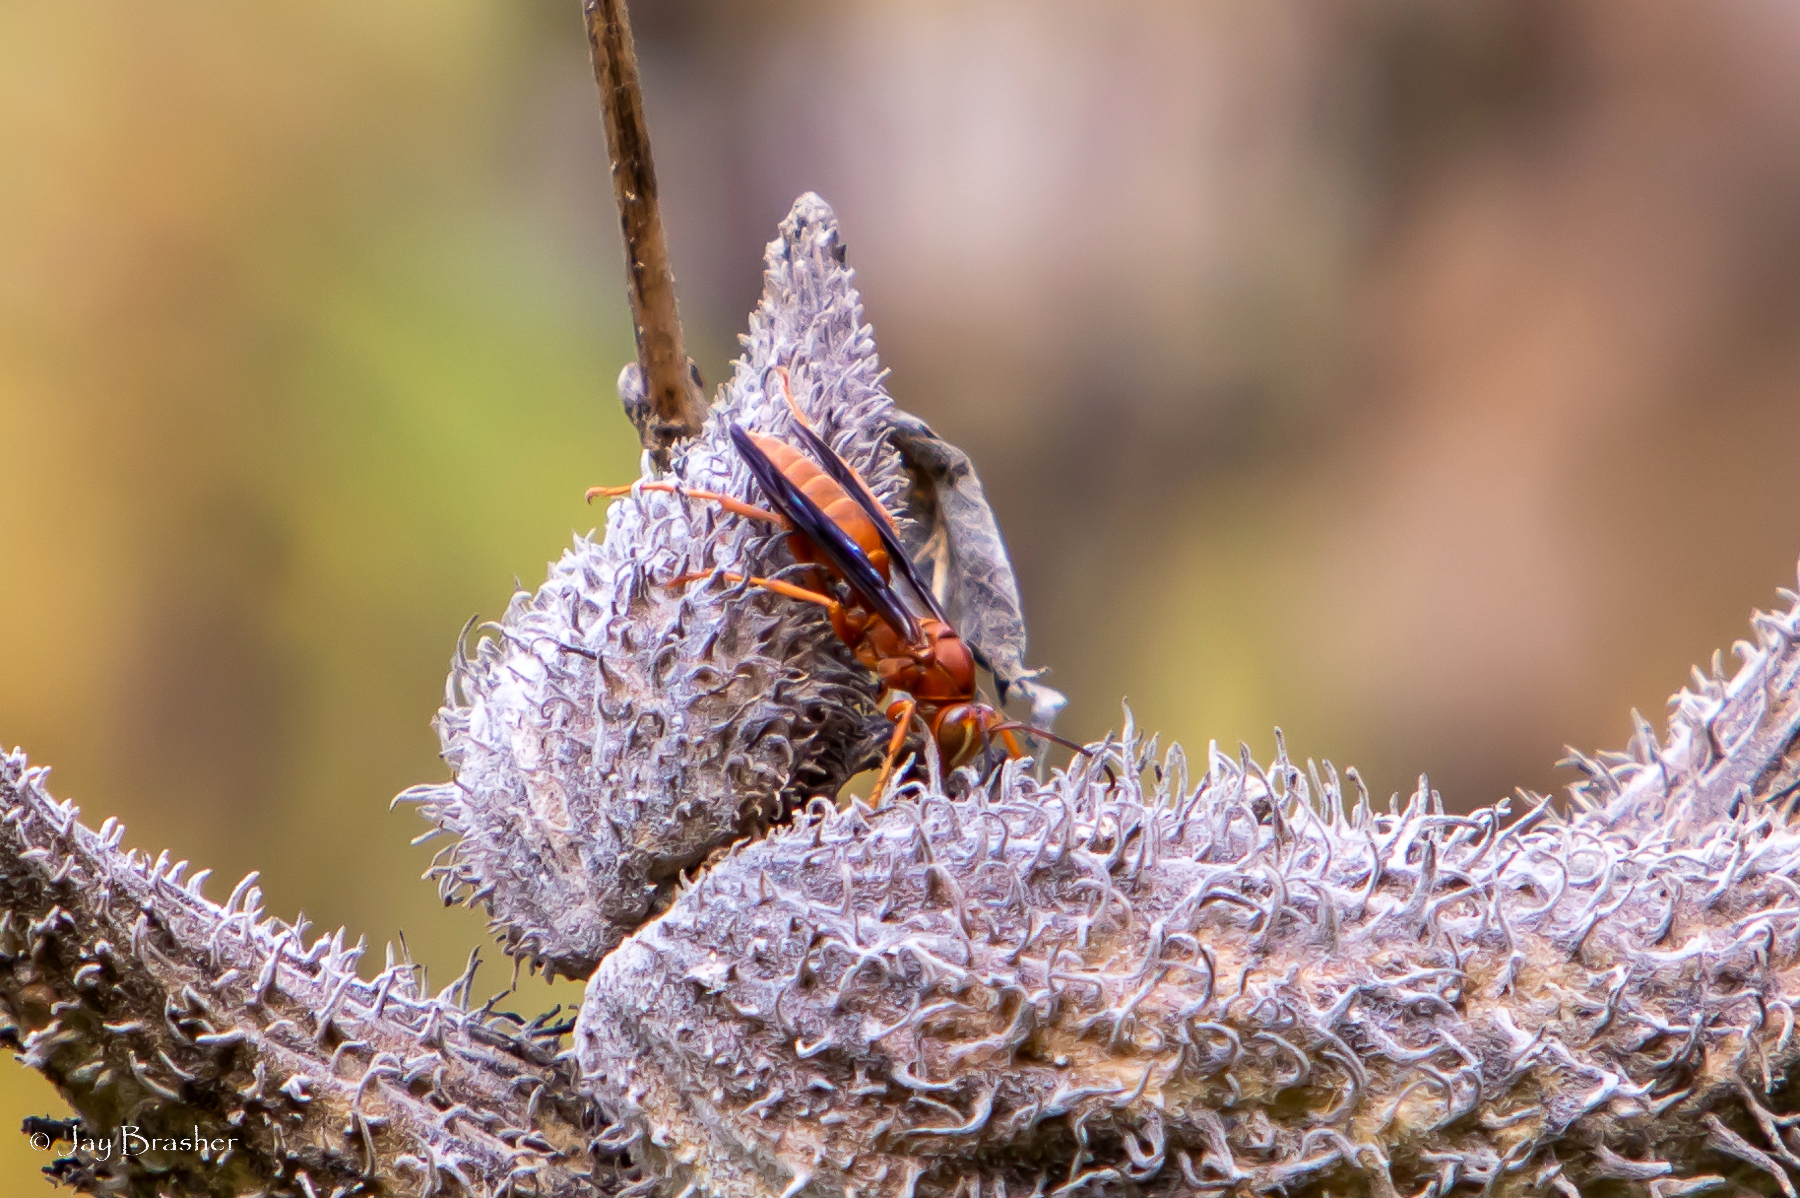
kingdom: Animalia
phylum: Arthropoda
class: Insecta
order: Hymenoptera
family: Eumenidae
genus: Polistes
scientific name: Polistes carolina
